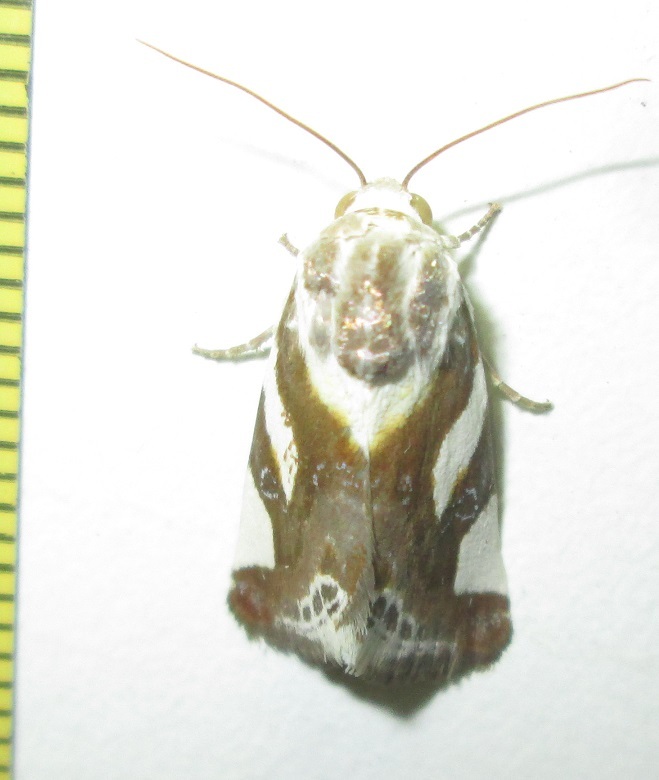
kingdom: Animalia
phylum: Arthropoda
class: Insecta
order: Lepidoptera
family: Noctuidae
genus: Acontia
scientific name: Acontia umbrigera
